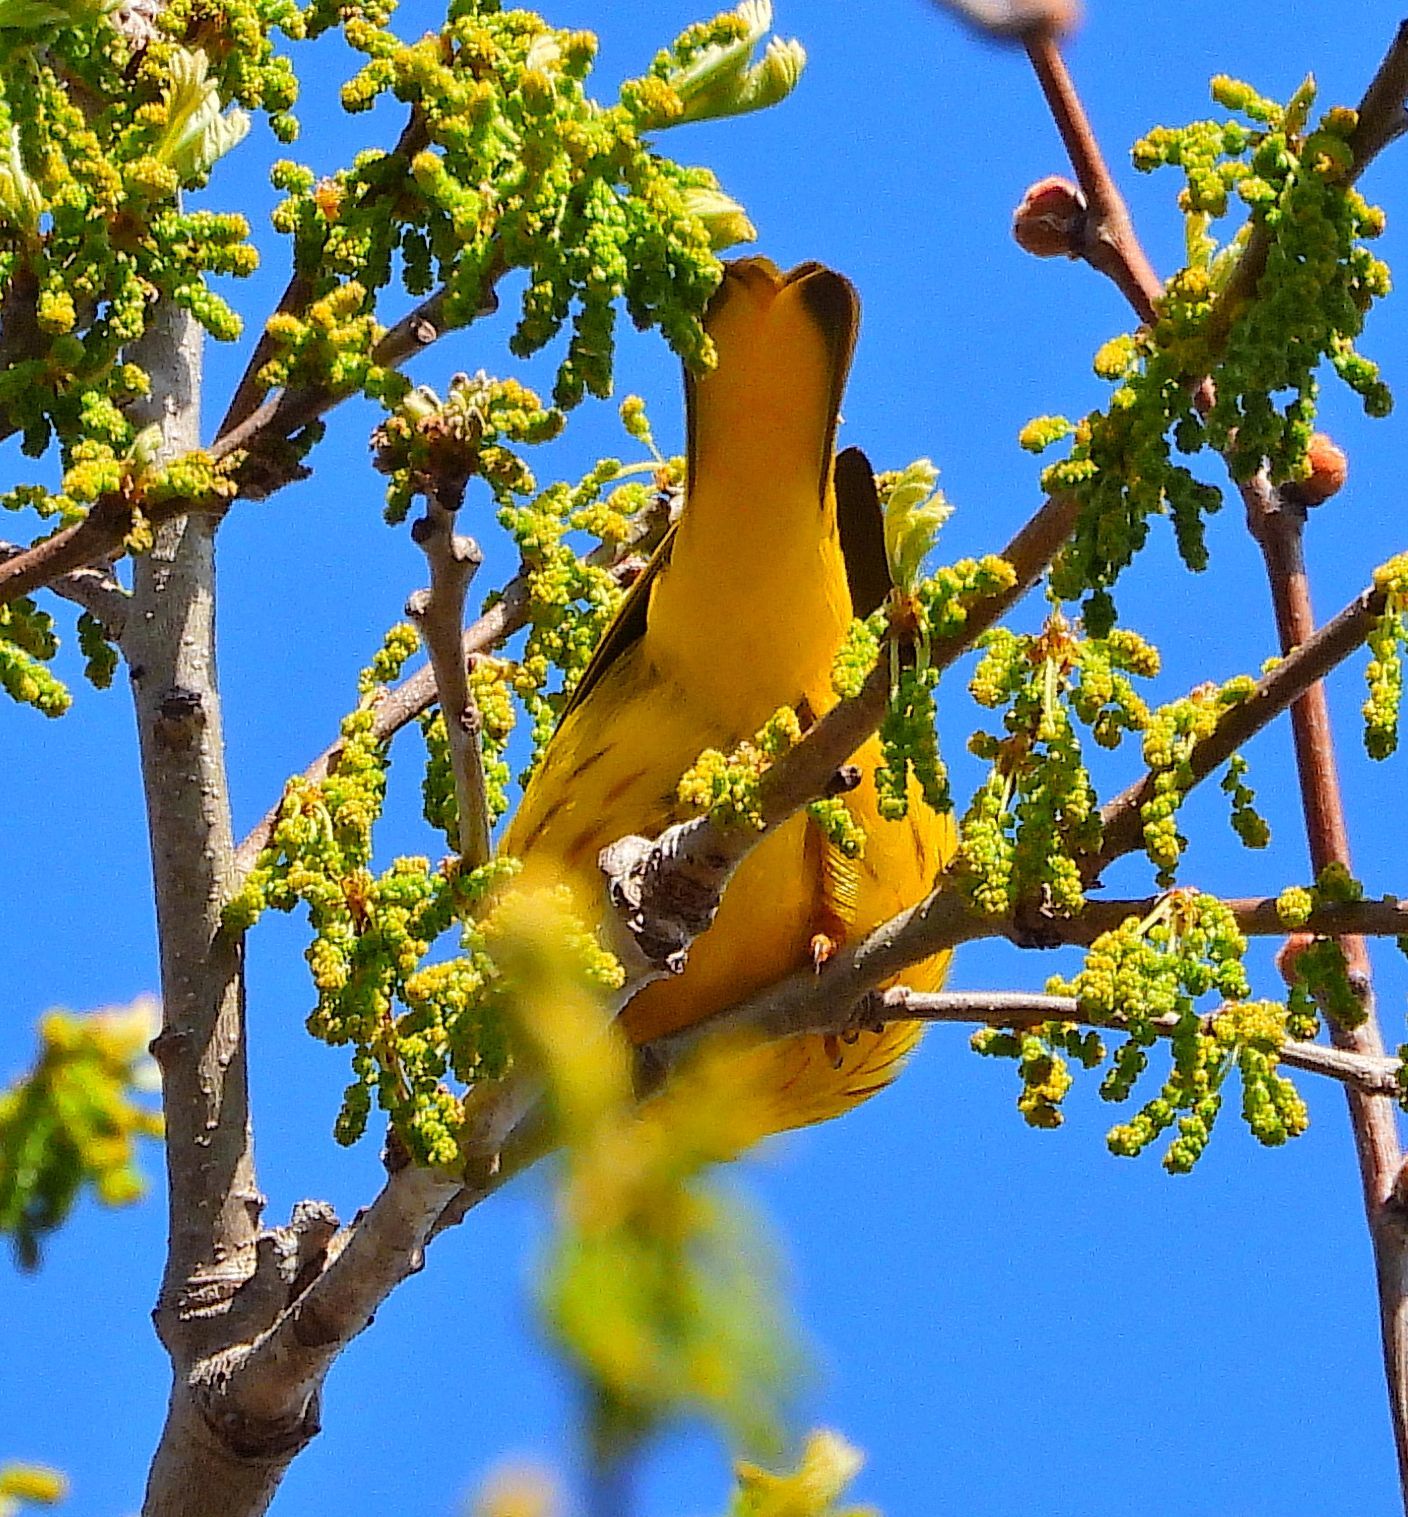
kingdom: Animalia
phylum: Chordata
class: Aves
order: Passeriformes
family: Parulidae
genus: Setophaga
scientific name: Setophaga petechia
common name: Yellow warbler
